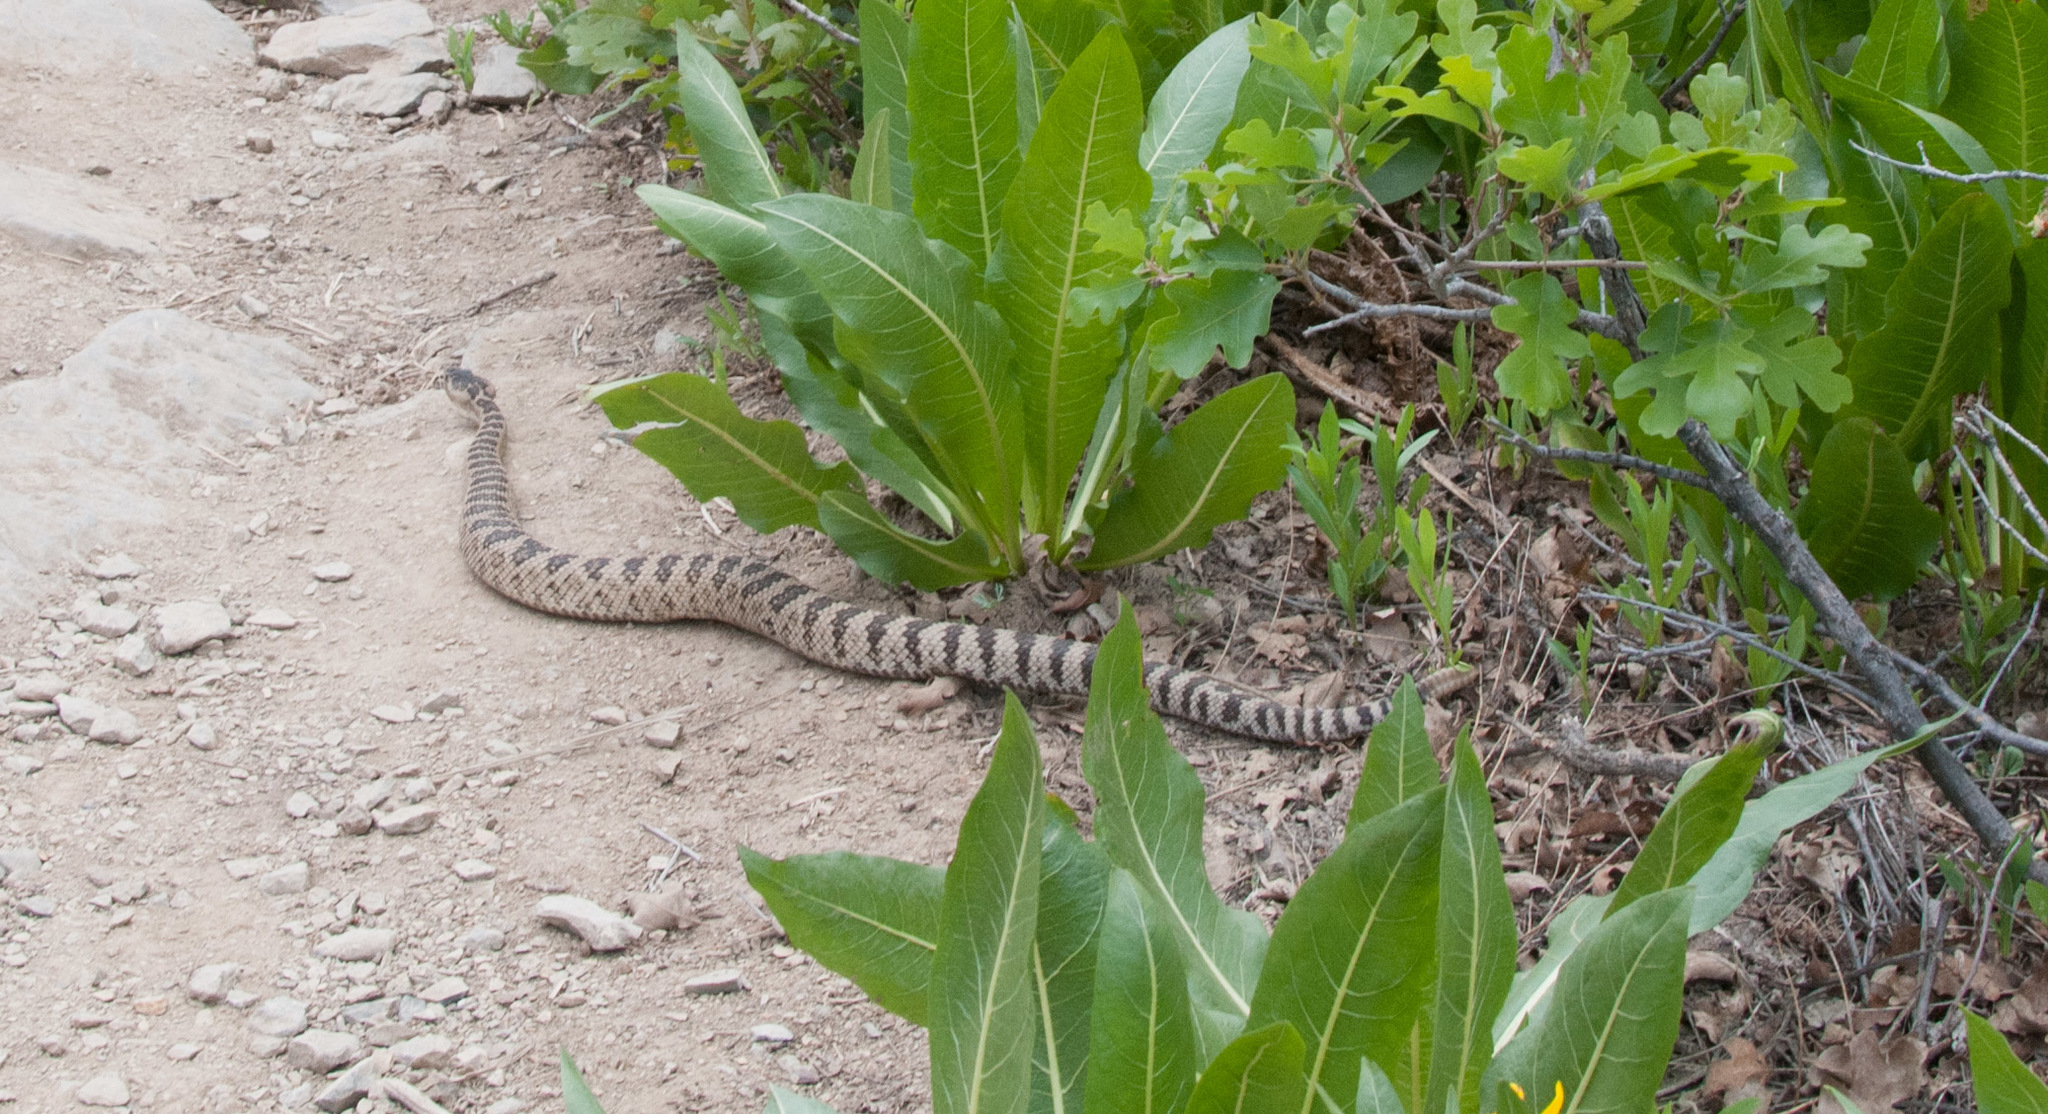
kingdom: Animalia
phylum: Chordata
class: Squamata
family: Viperidae
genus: Crotalus
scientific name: Crotalus oreganus
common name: Abyssus
